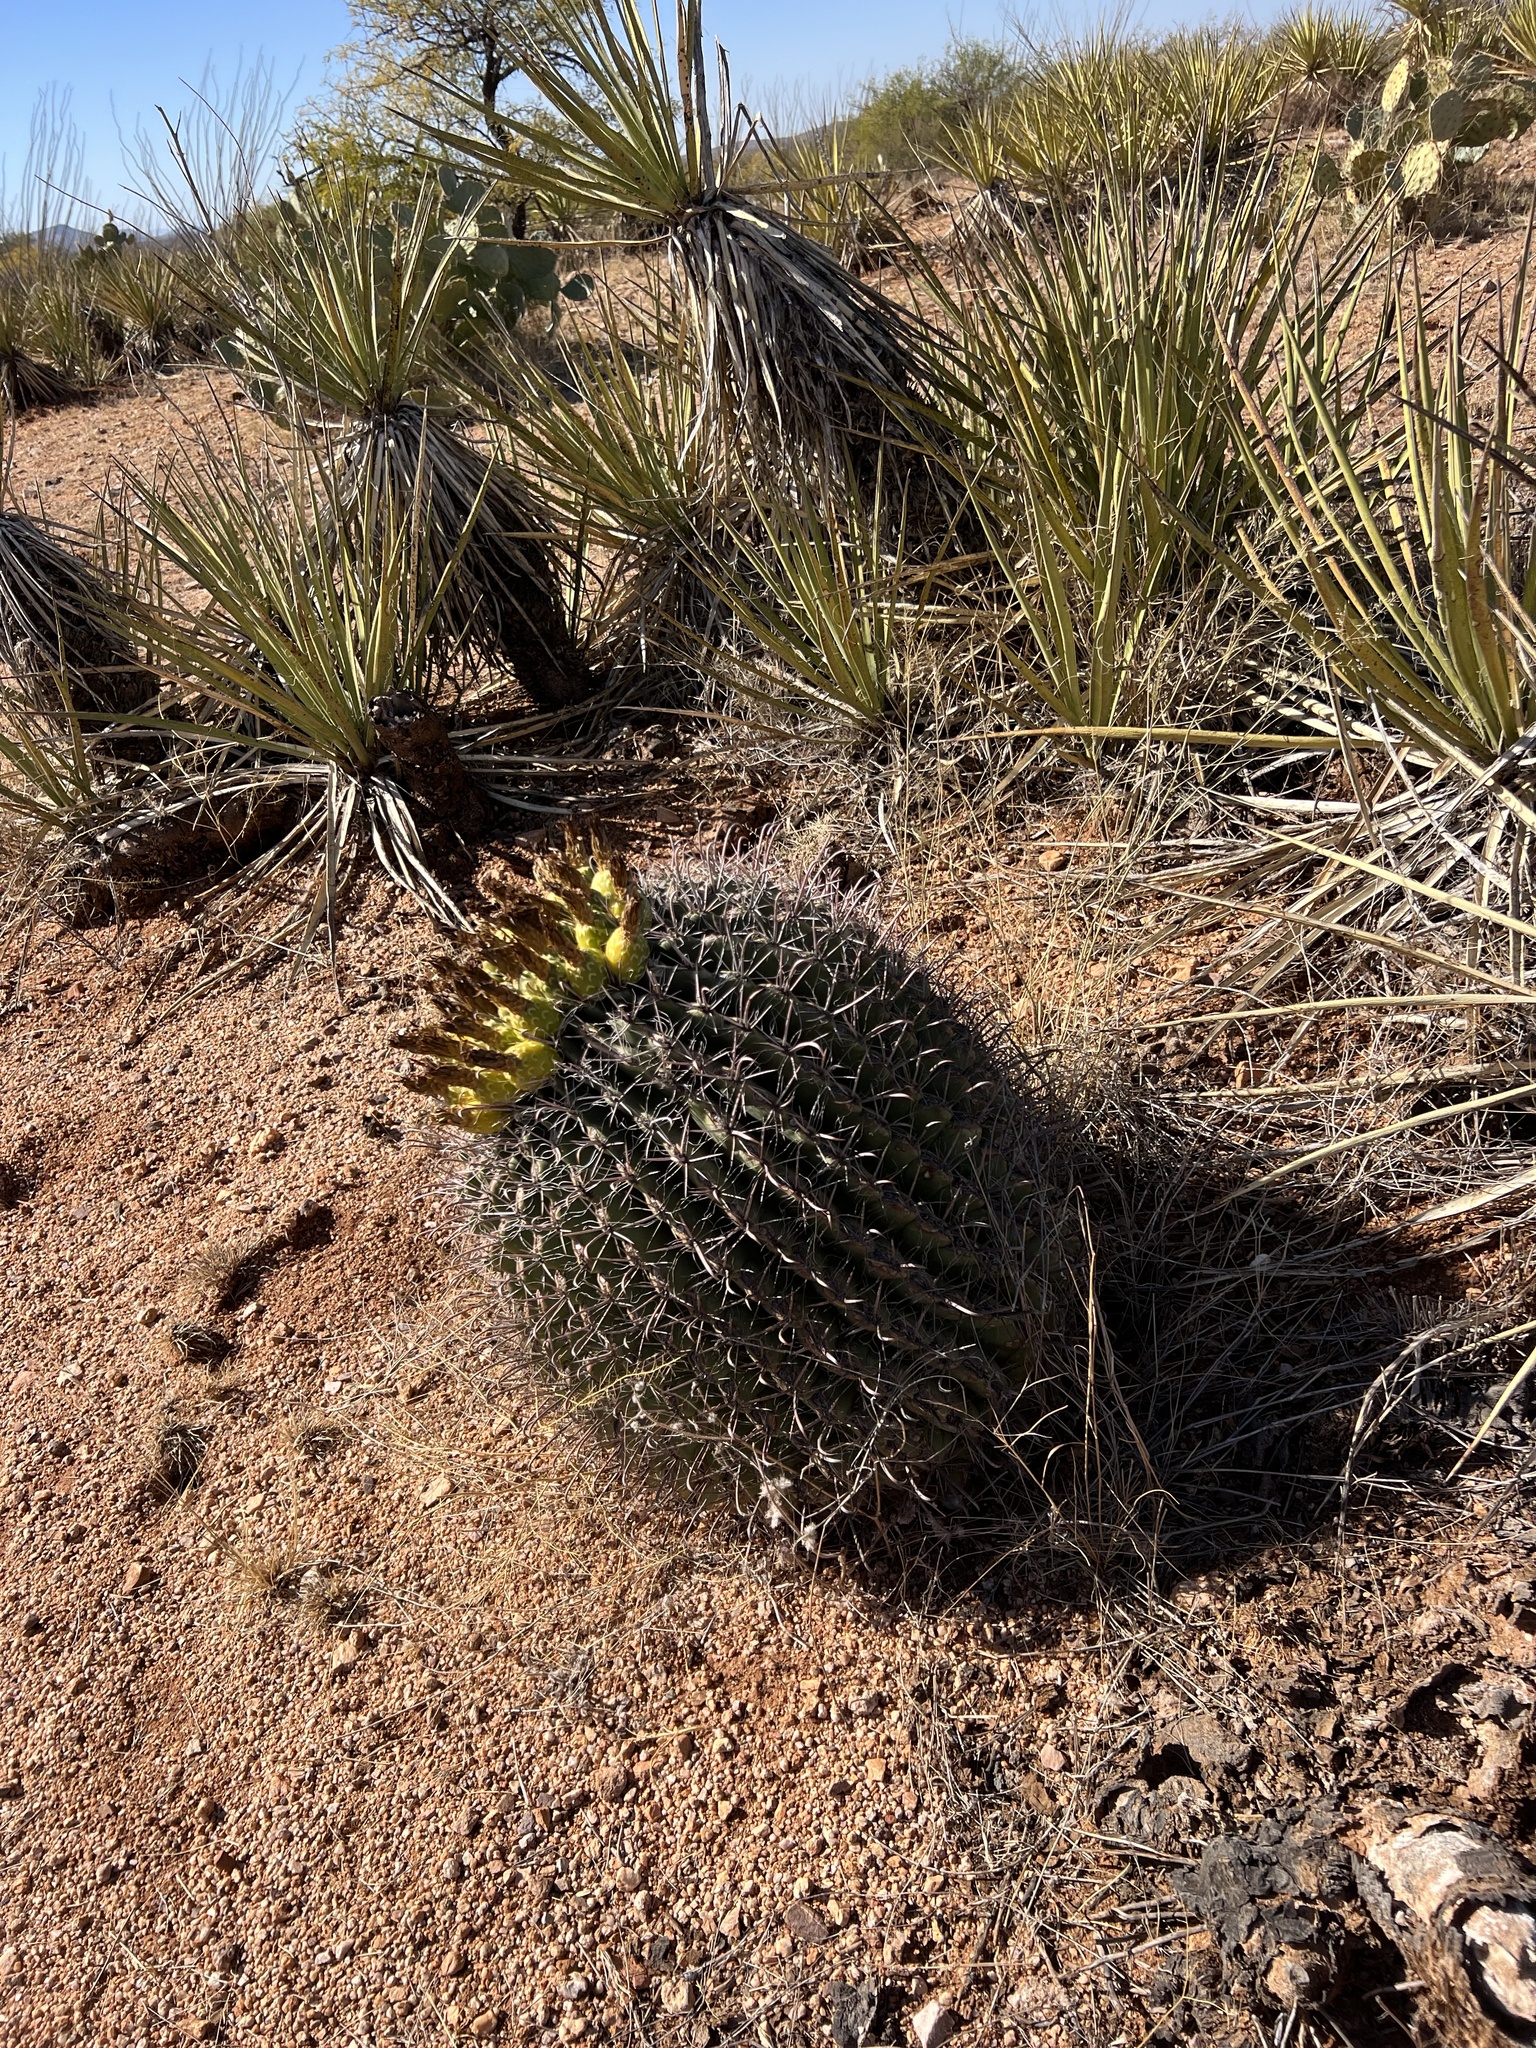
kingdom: Plantae
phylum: Tracheophyta
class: Magnoliopsida
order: Caryophyllales
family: Cactaceae
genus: Ferocactus
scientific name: Ferocactus wislizeni
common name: Candy barrel cactus
